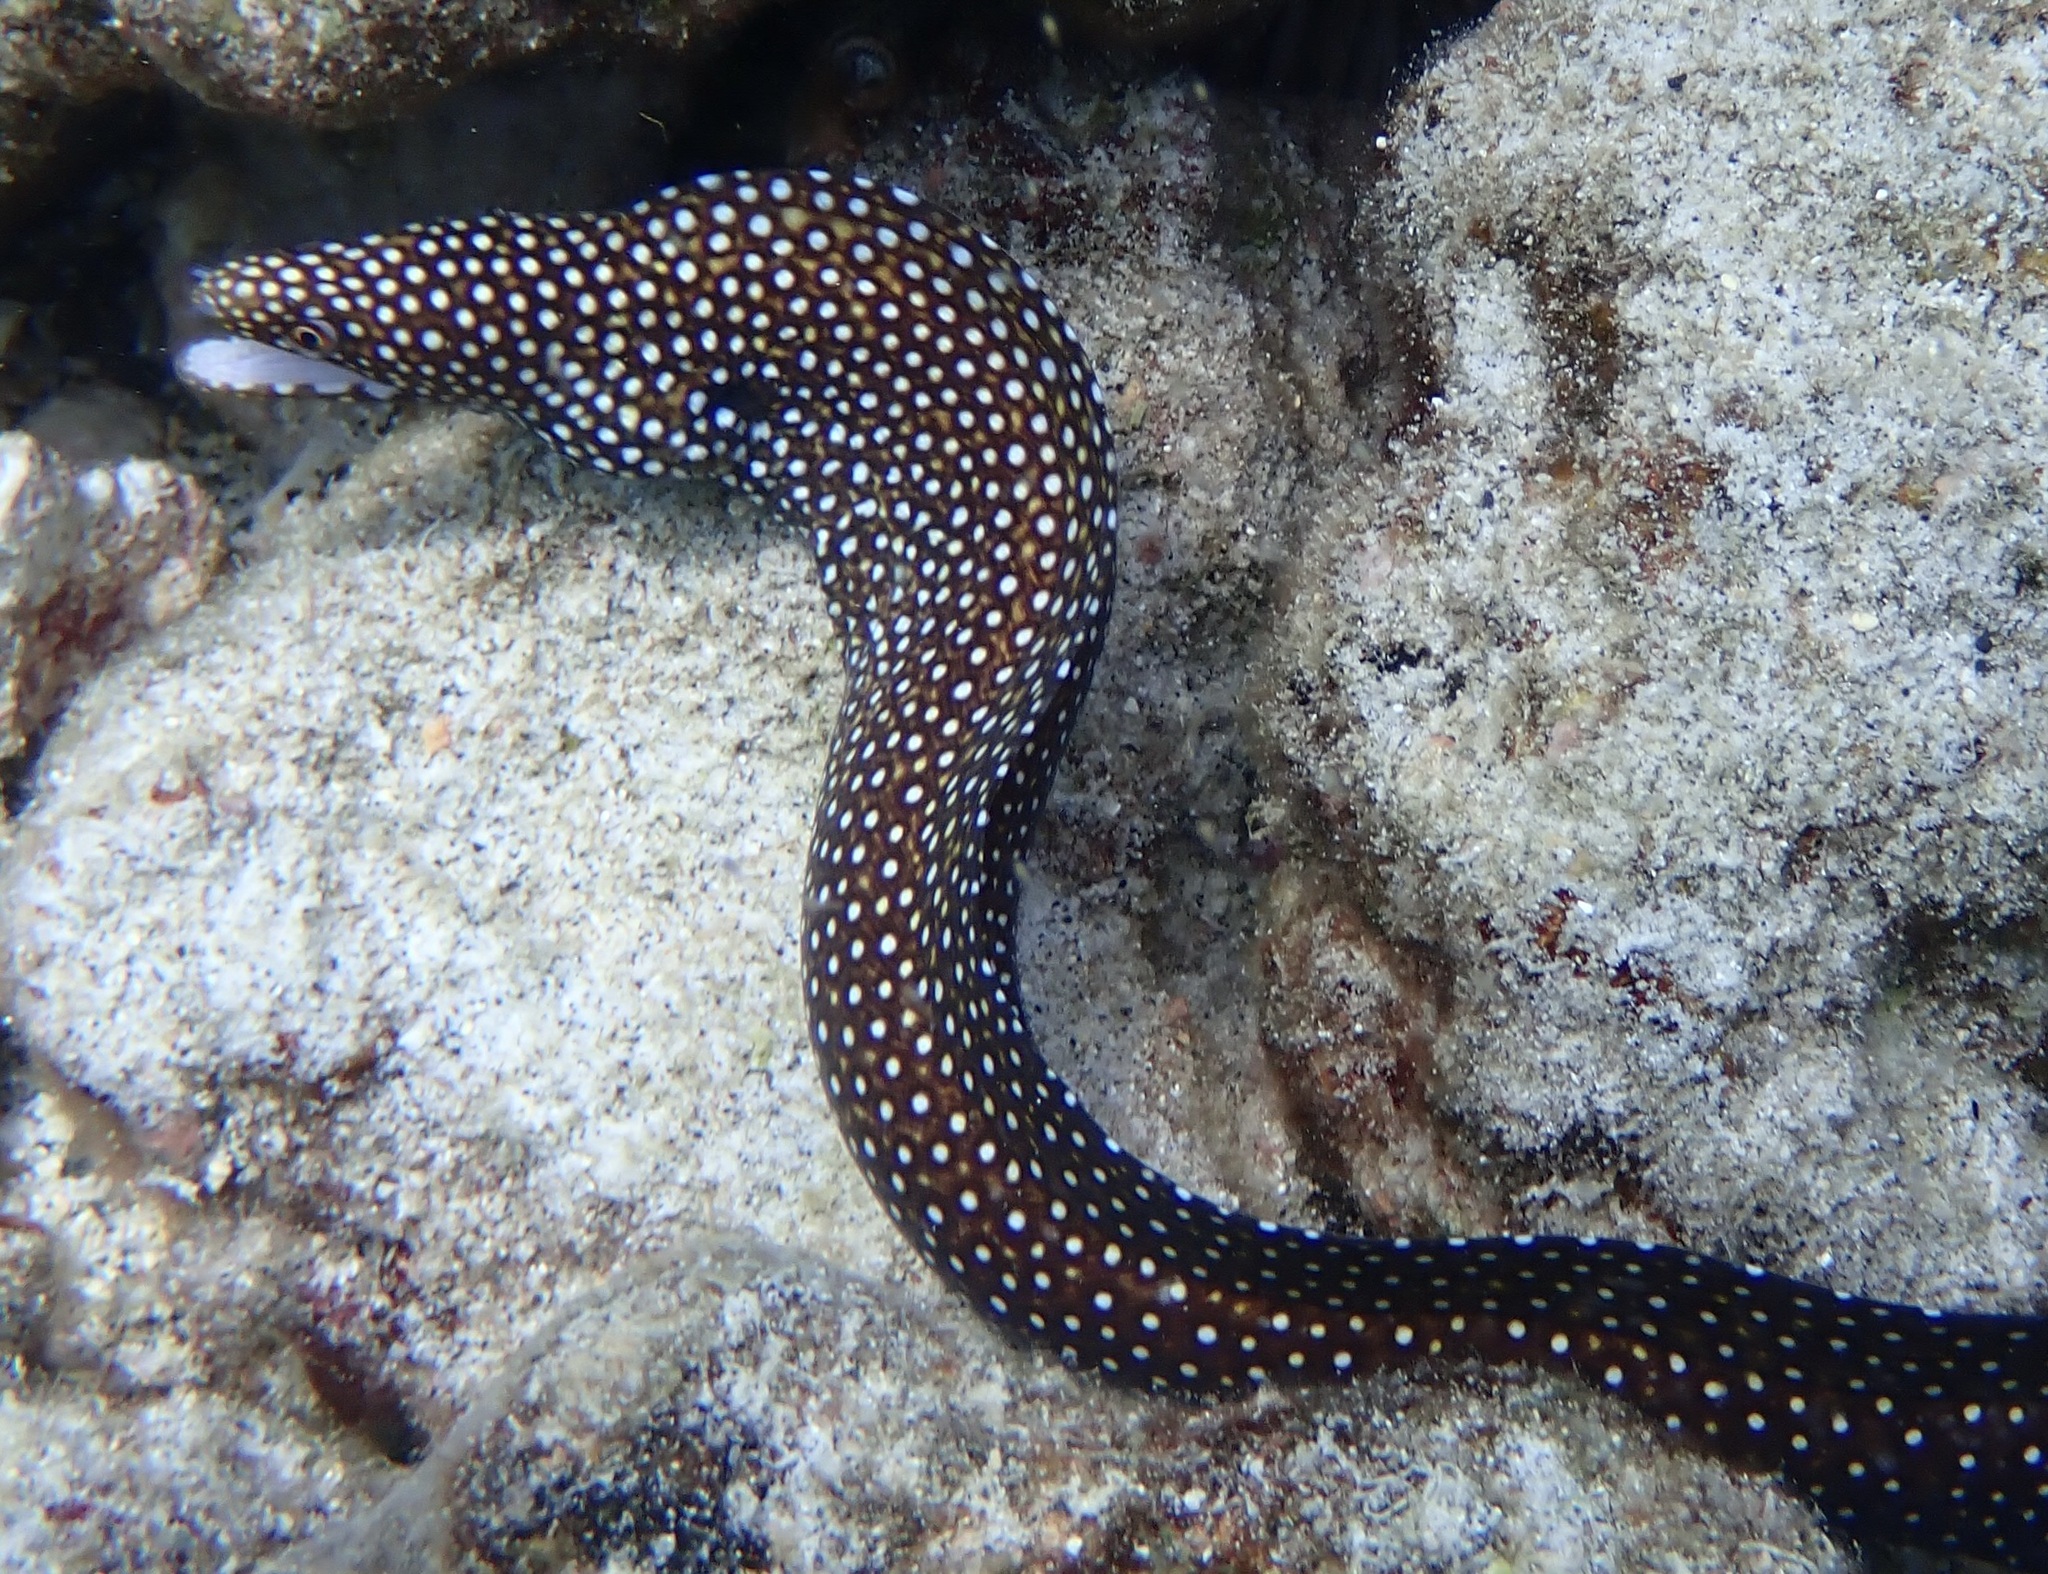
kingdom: Animalia
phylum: Chordata
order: Anguilliformes
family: Muraenidae
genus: Gymnothorax
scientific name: Gymnothorax meleagris
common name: Guineafowl moray
